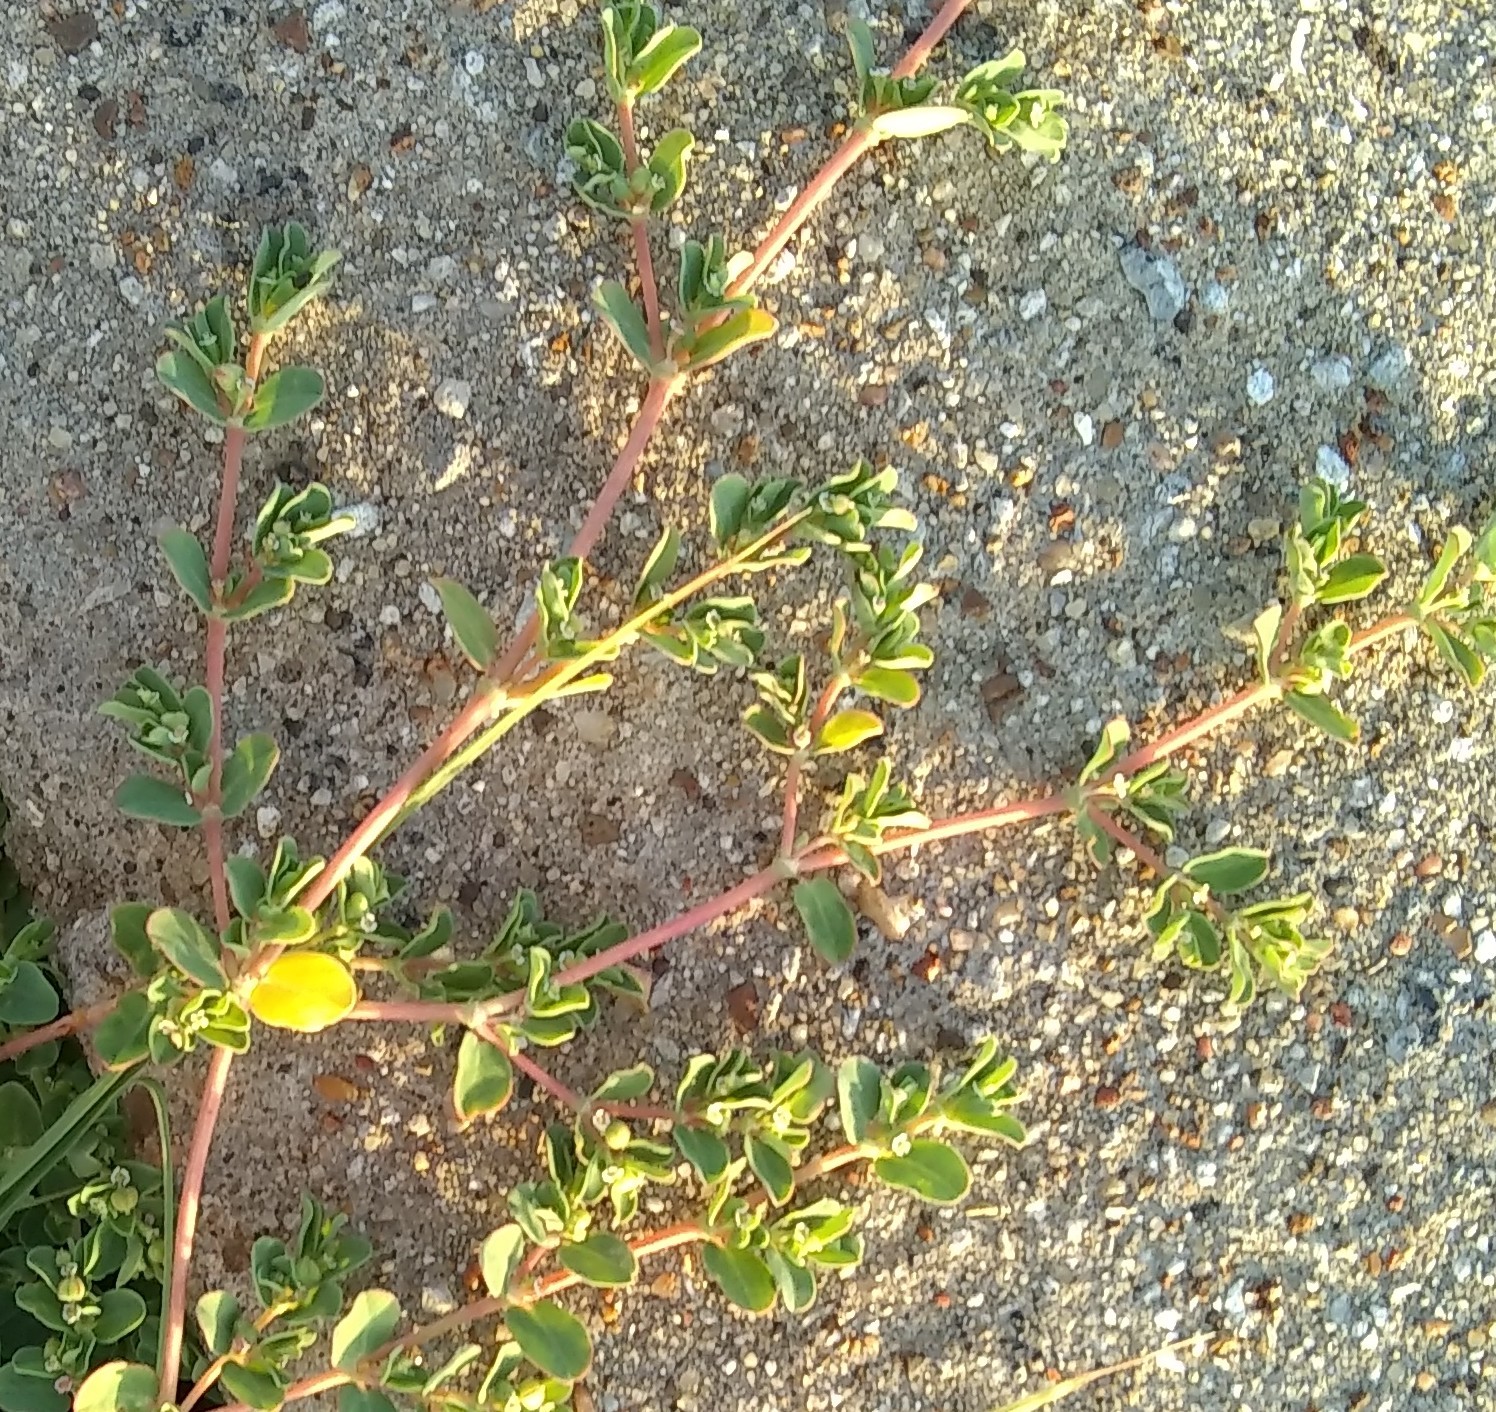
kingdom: Plantae
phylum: Tracheophyta
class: Magnoliopsida
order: Caryophyllales
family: Portulacaceae
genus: Portulaca
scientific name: Portulaca oleracea
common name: Common purslane
